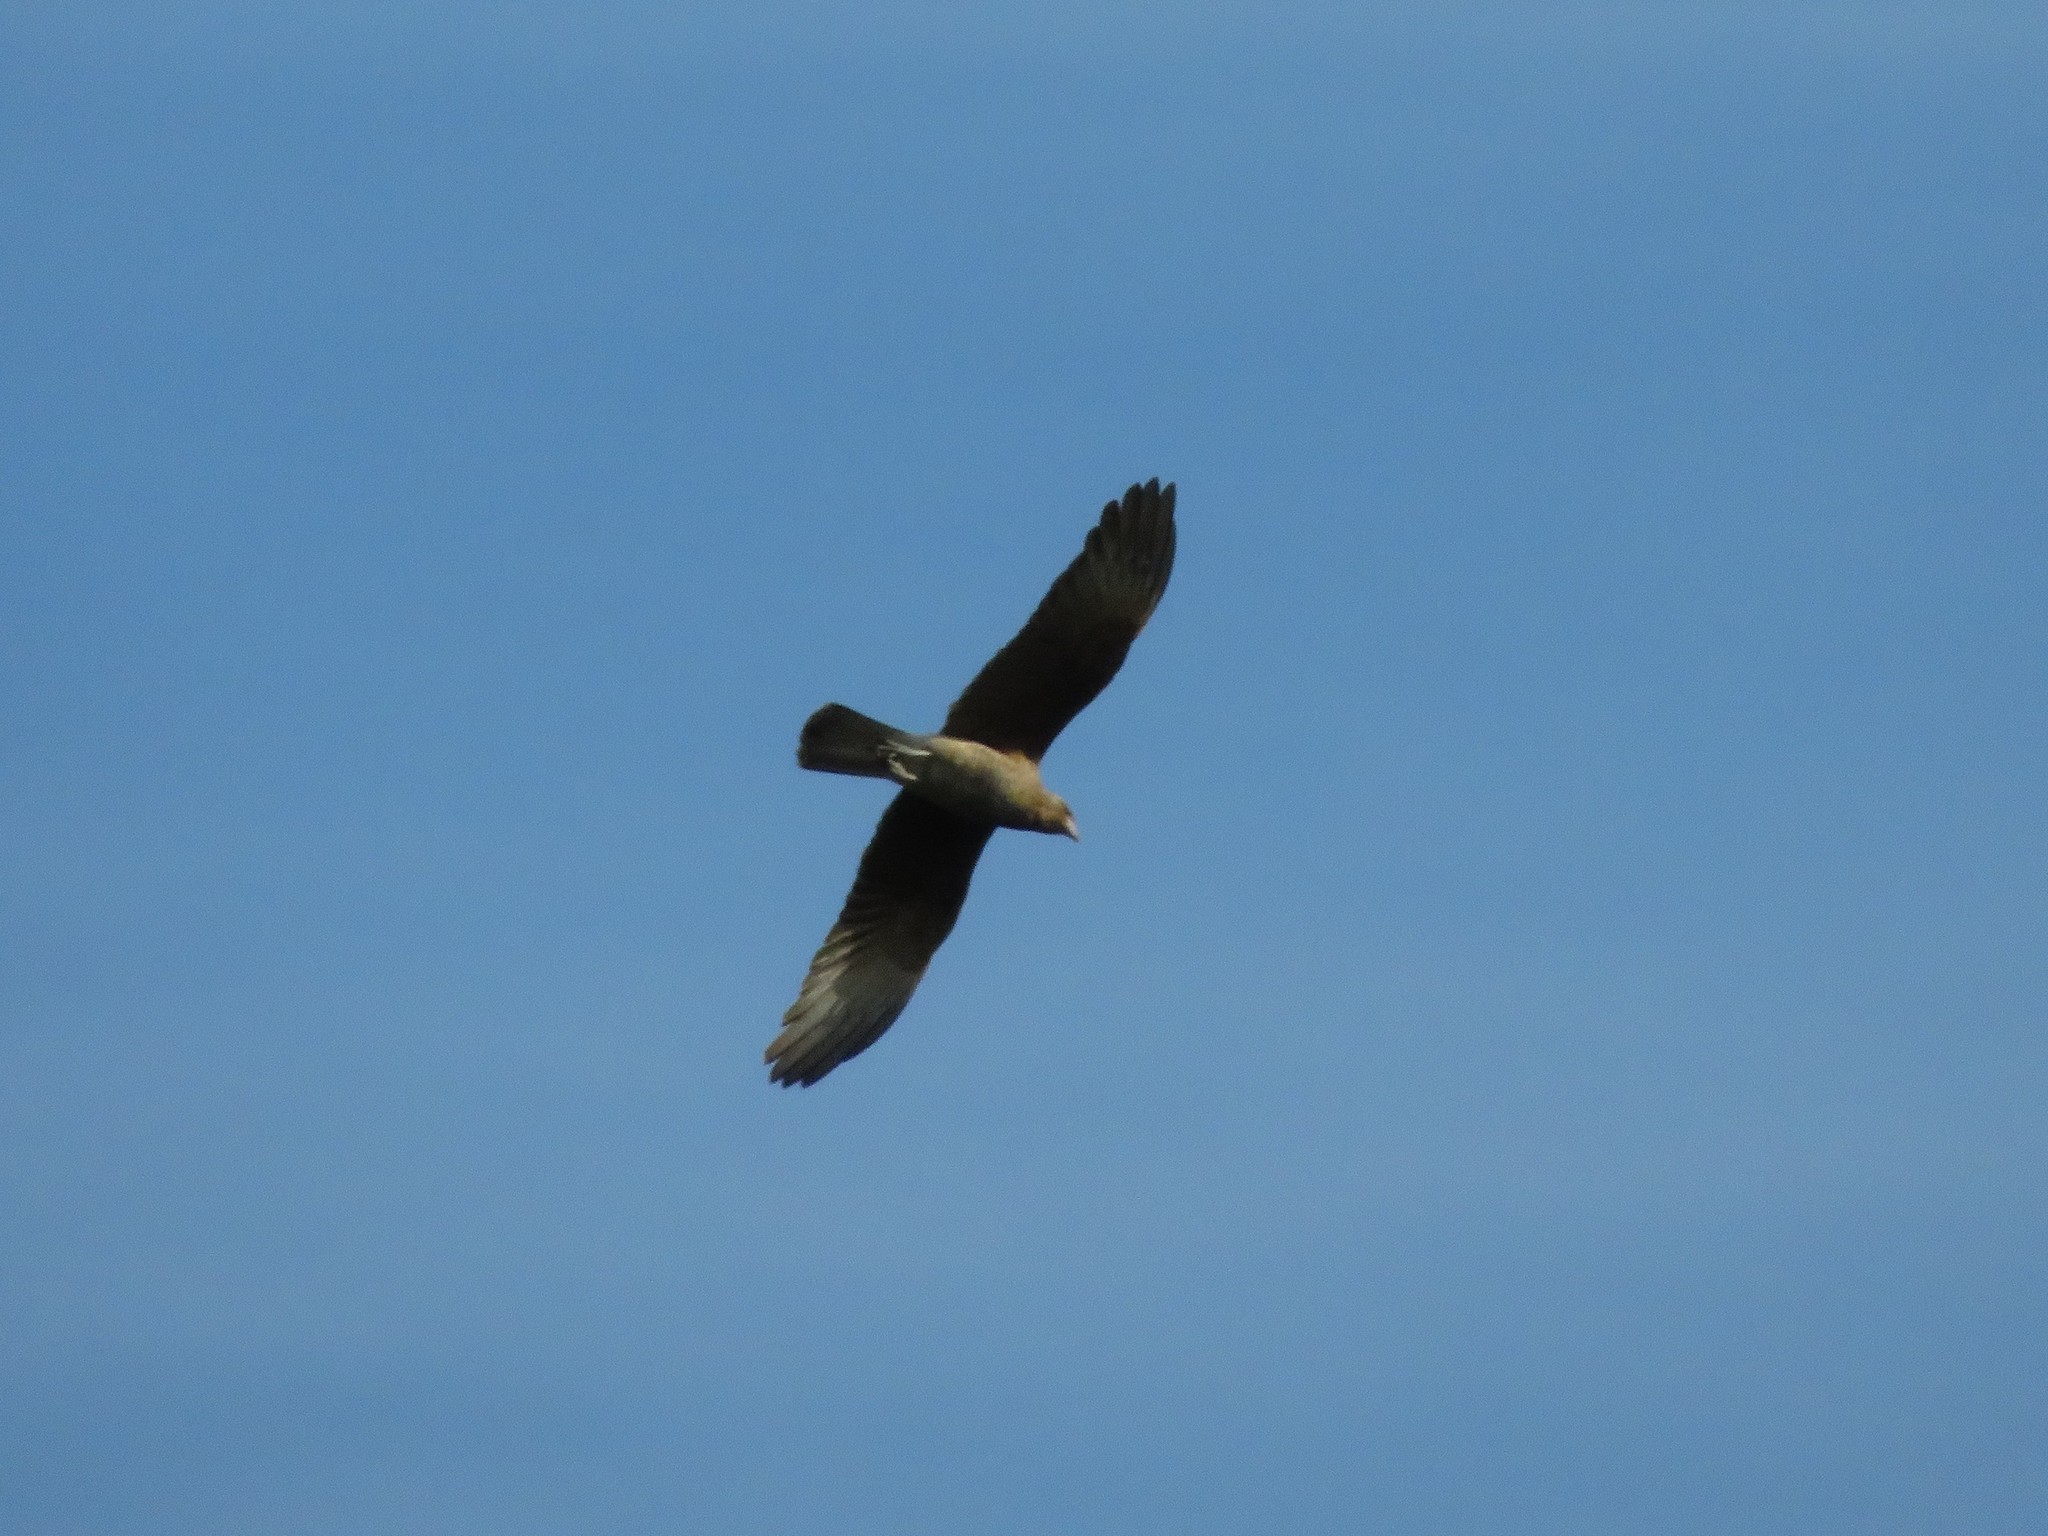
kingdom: Animalia
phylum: Chordata
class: Aves
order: Falconiformes
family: Falconidae
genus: Daptrius
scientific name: Daptrius
